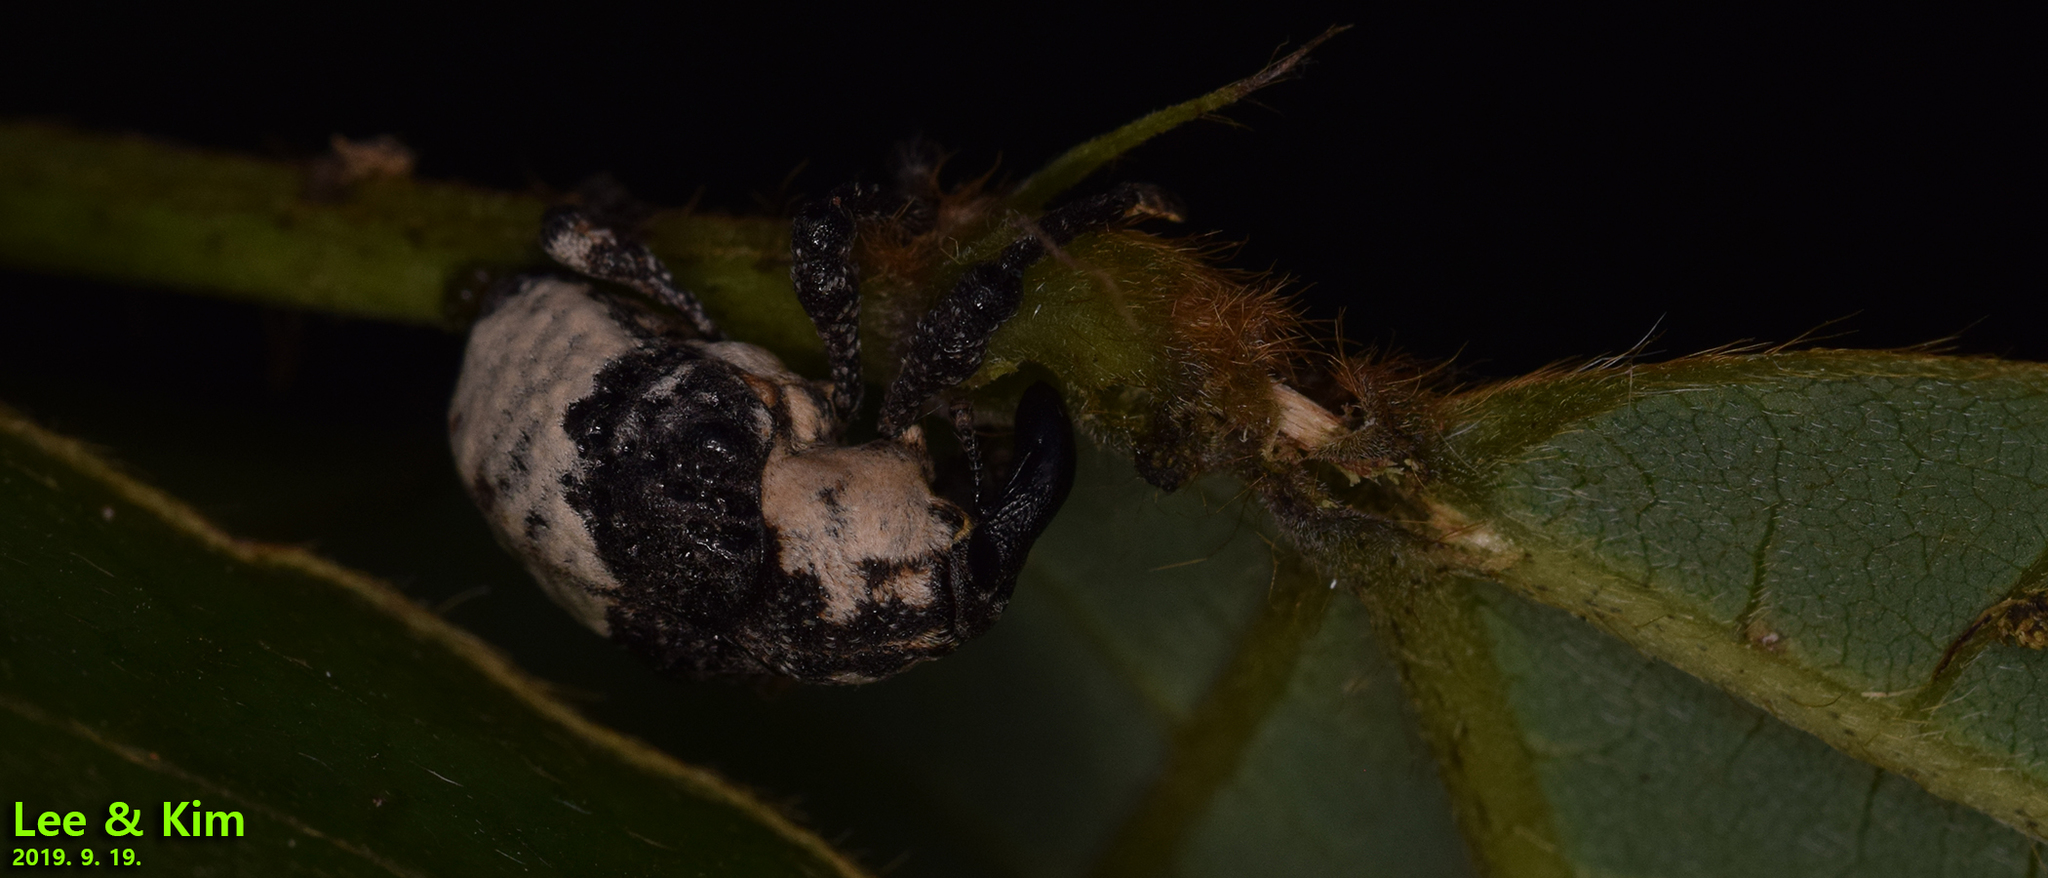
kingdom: Animalia
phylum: Arthropoda
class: Insecta
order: Coleoptera
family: Curculionidae
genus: Alcides
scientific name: Alcides trifidus
